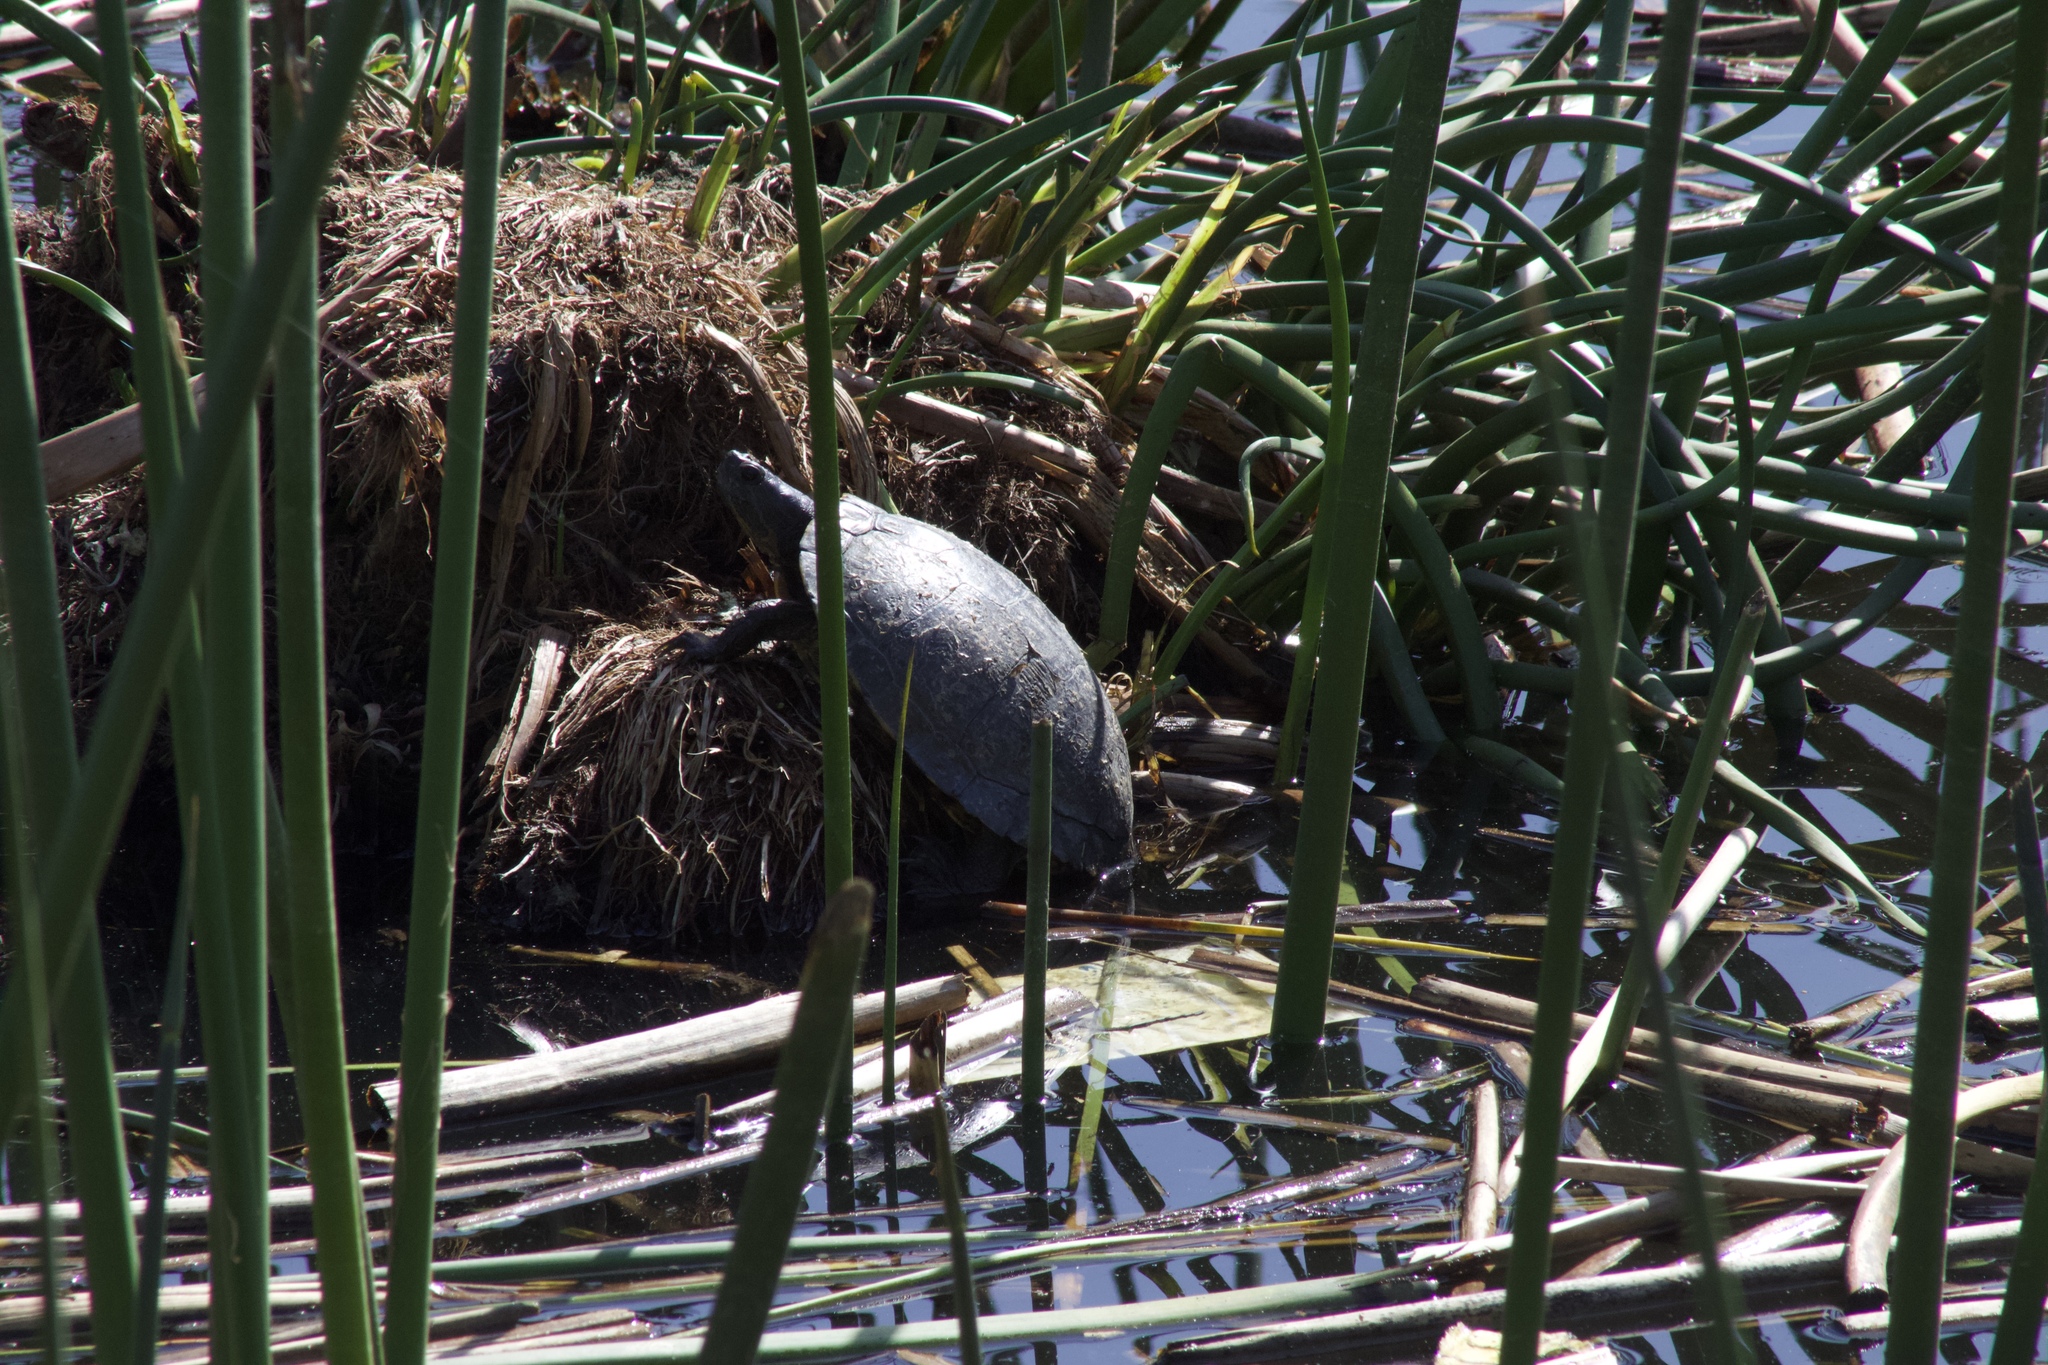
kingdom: Animalia
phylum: Chordata
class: Testudines
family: Emydidae
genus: Trachemys
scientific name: Trachemys scripta
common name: Slider
